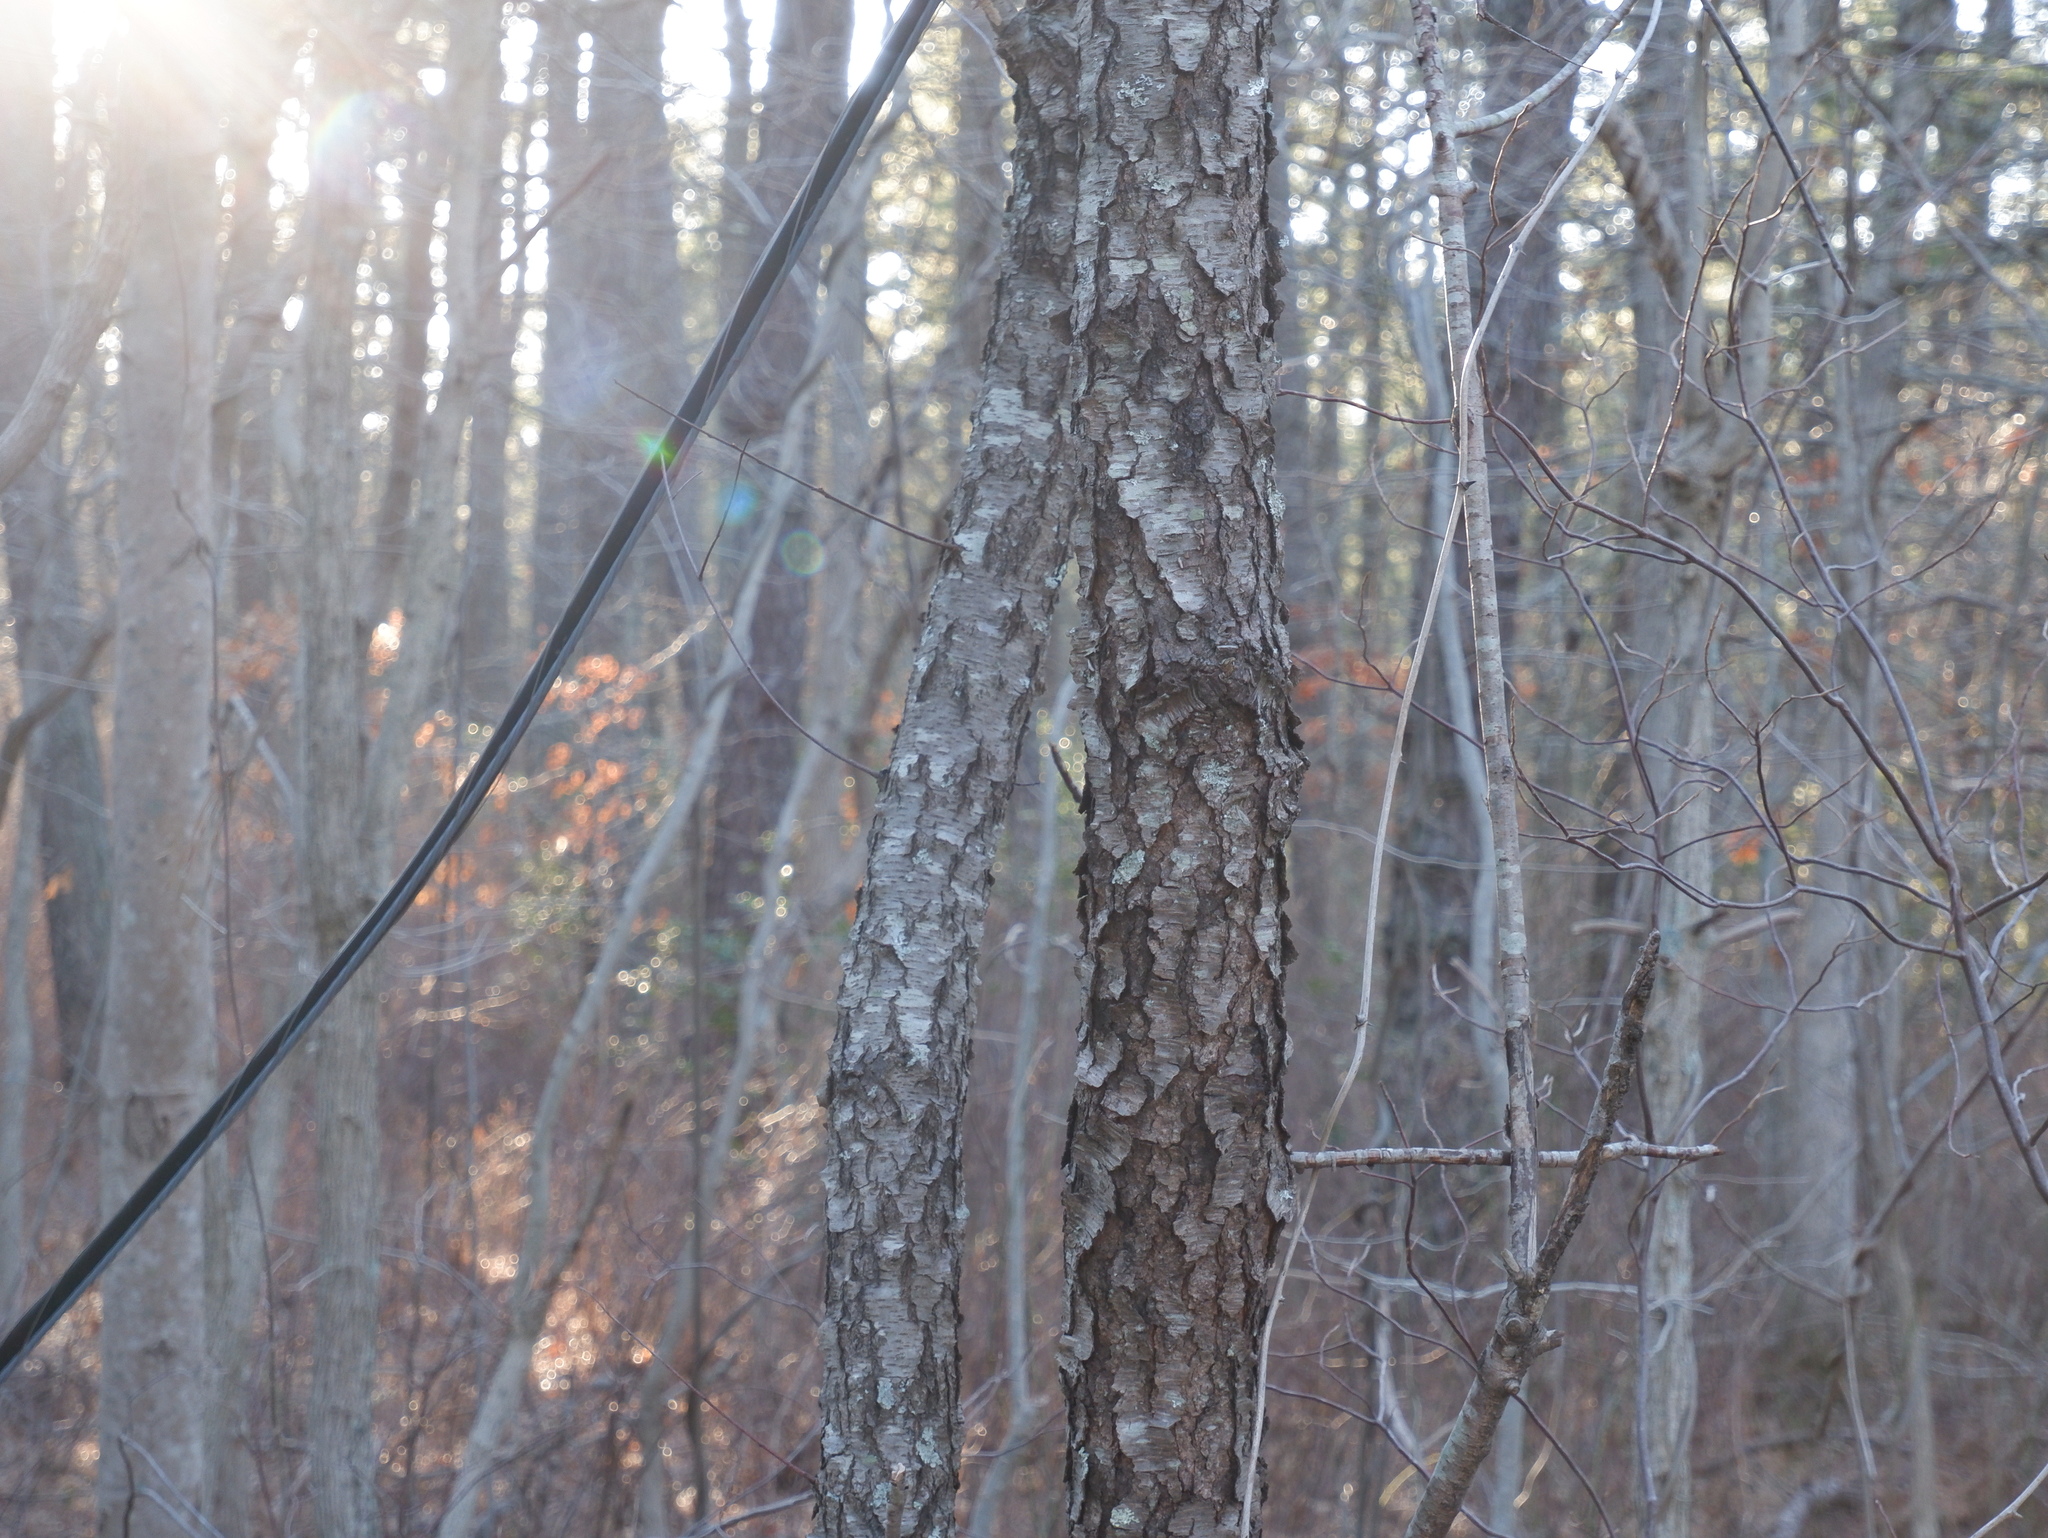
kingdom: Fungi
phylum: Ascomycota
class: Dothideomycetes
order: Venturiales
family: Venturiaceae
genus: Apiosporina
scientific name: Apiosporina morbosa
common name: Black knot
